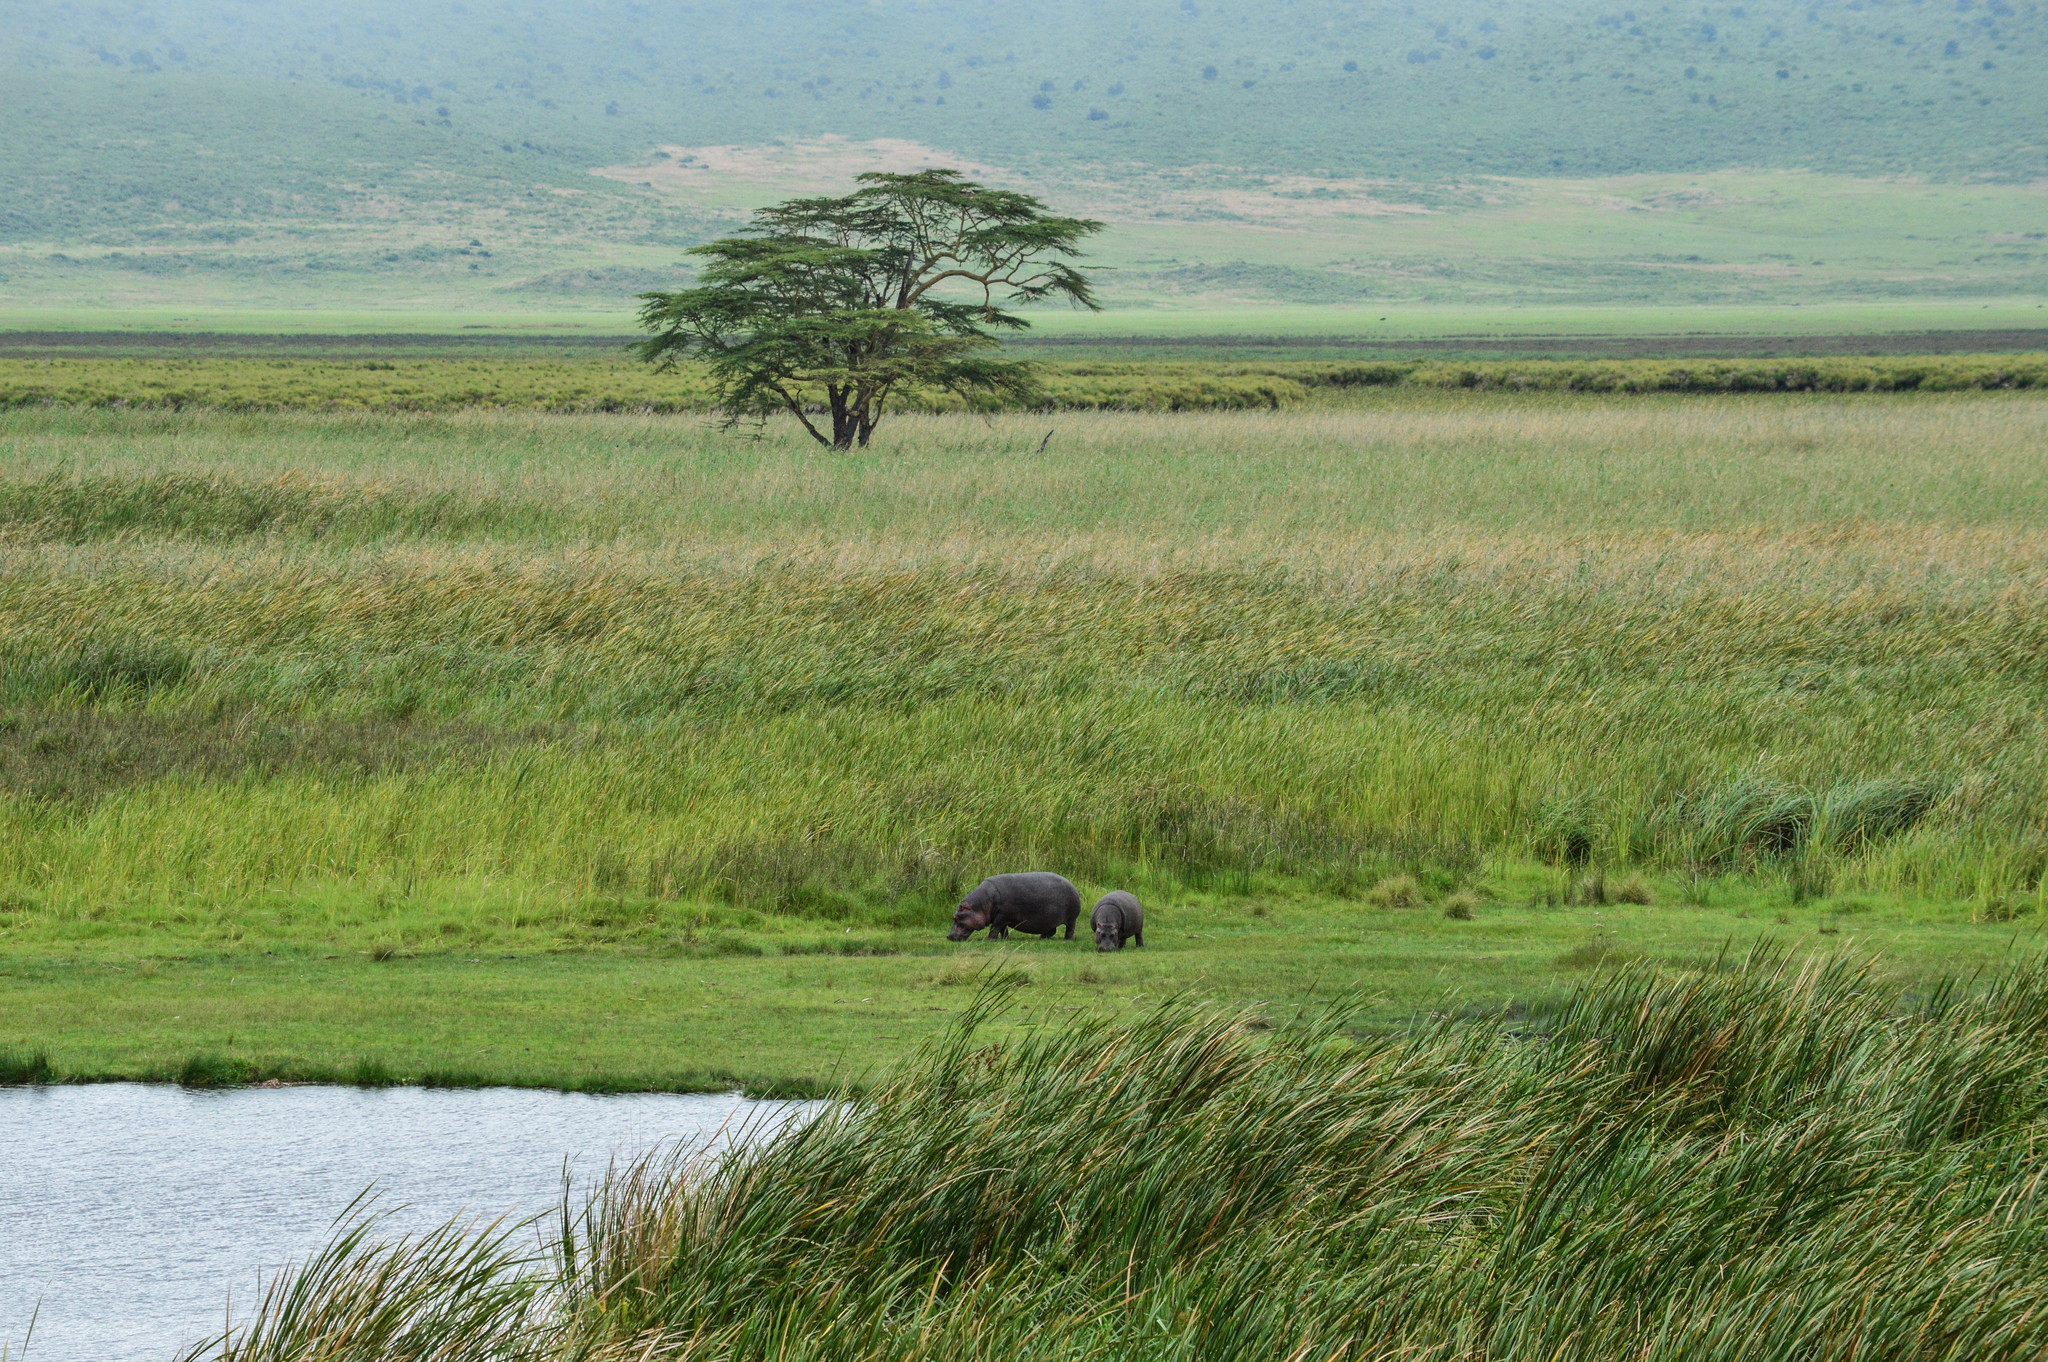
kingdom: Animalia
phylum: Chordata
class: Mammalia
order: Artiodactyla
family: Hippopotamidae
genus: Hippopotamus
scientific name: Hippopotamus amphibius
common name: Common hippopotamus
